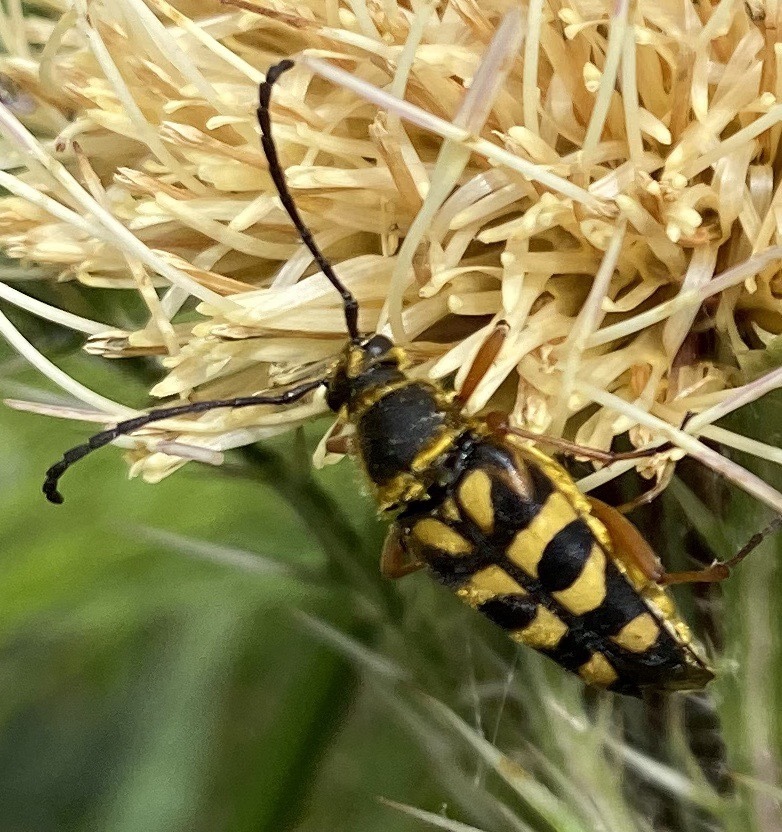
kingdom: Animalia
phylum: Arthropoda
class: Insecta
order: Coleoptera
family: Cerambycidae
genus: Typocerus
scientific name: Typocerus zebra
